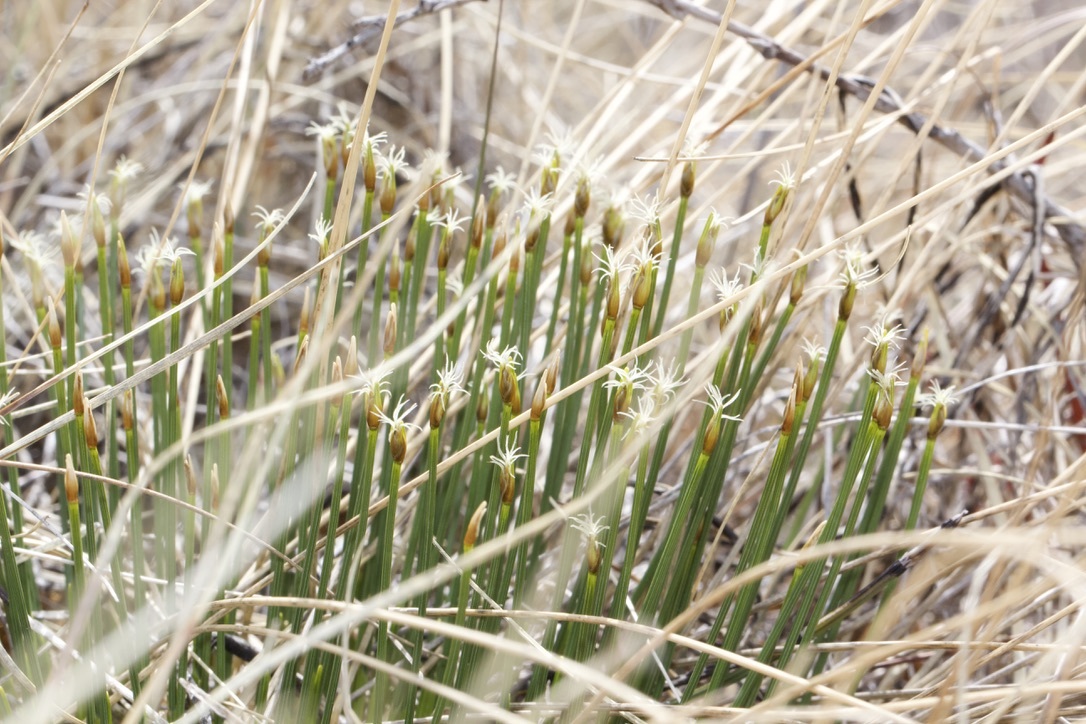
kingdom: Plantae
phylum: Tracheophyta
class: Liliopsida
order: Poales
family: Cyperaceae
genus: Trichophorum
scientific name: Trichophorum cespitosum
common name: Cespitose bulrush
